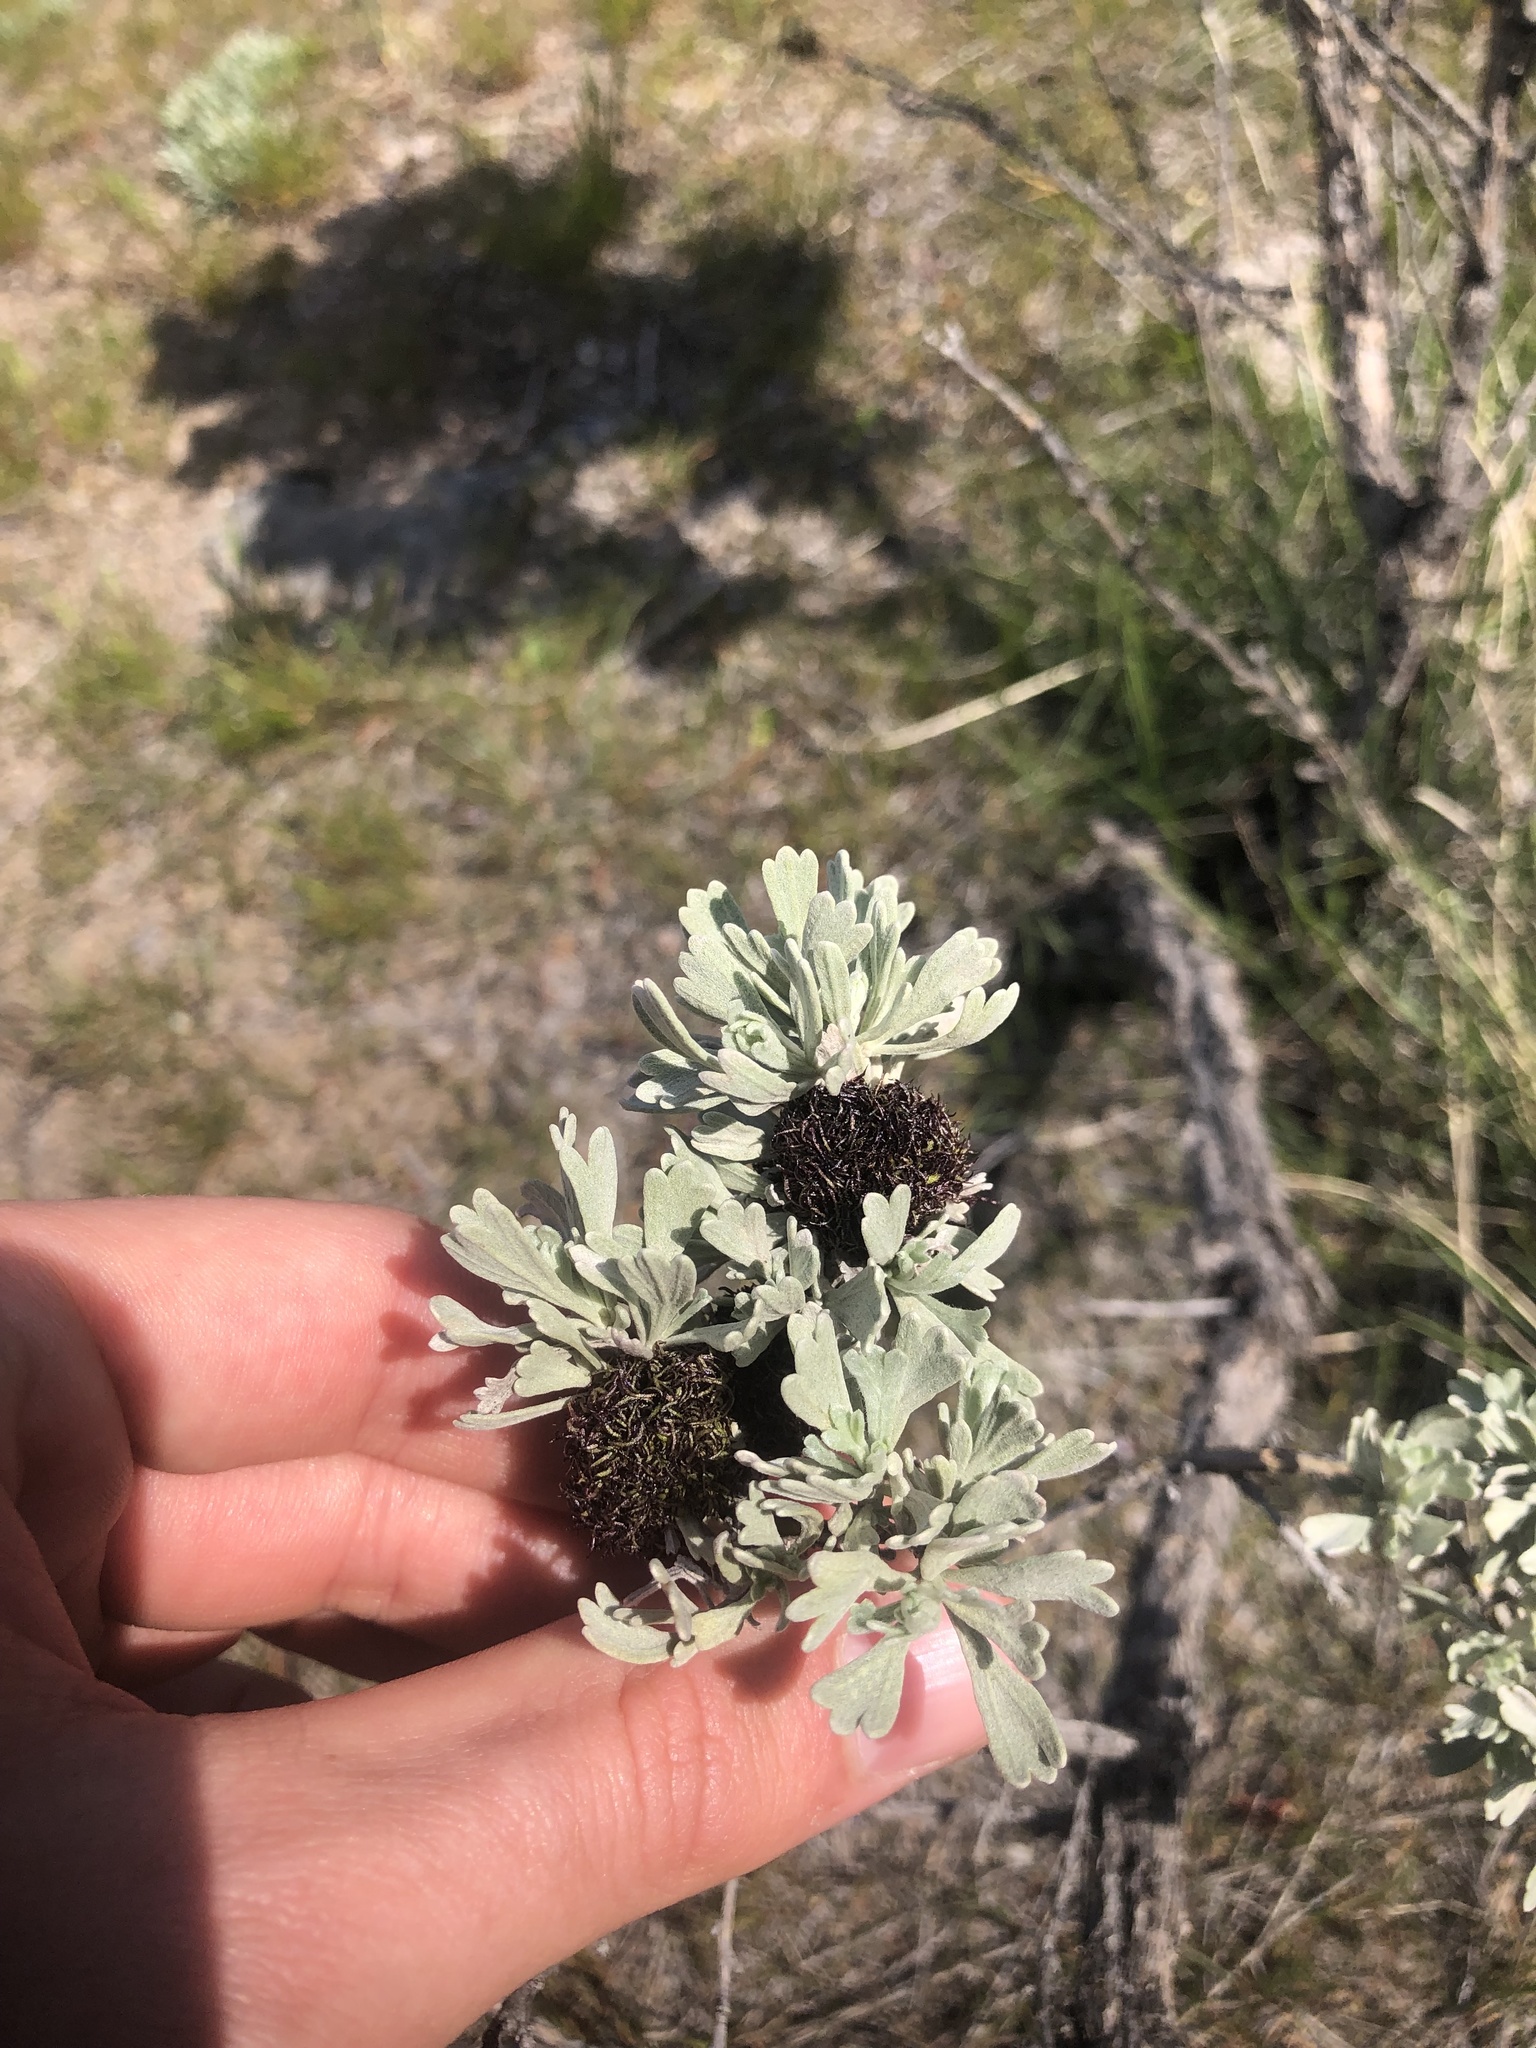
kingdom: Animalia
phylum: Arthropoda
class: Insecta
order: Diptera
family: Cecidomyiidae
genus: Rhopalomyia
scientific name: Rhopalomyia medusa
